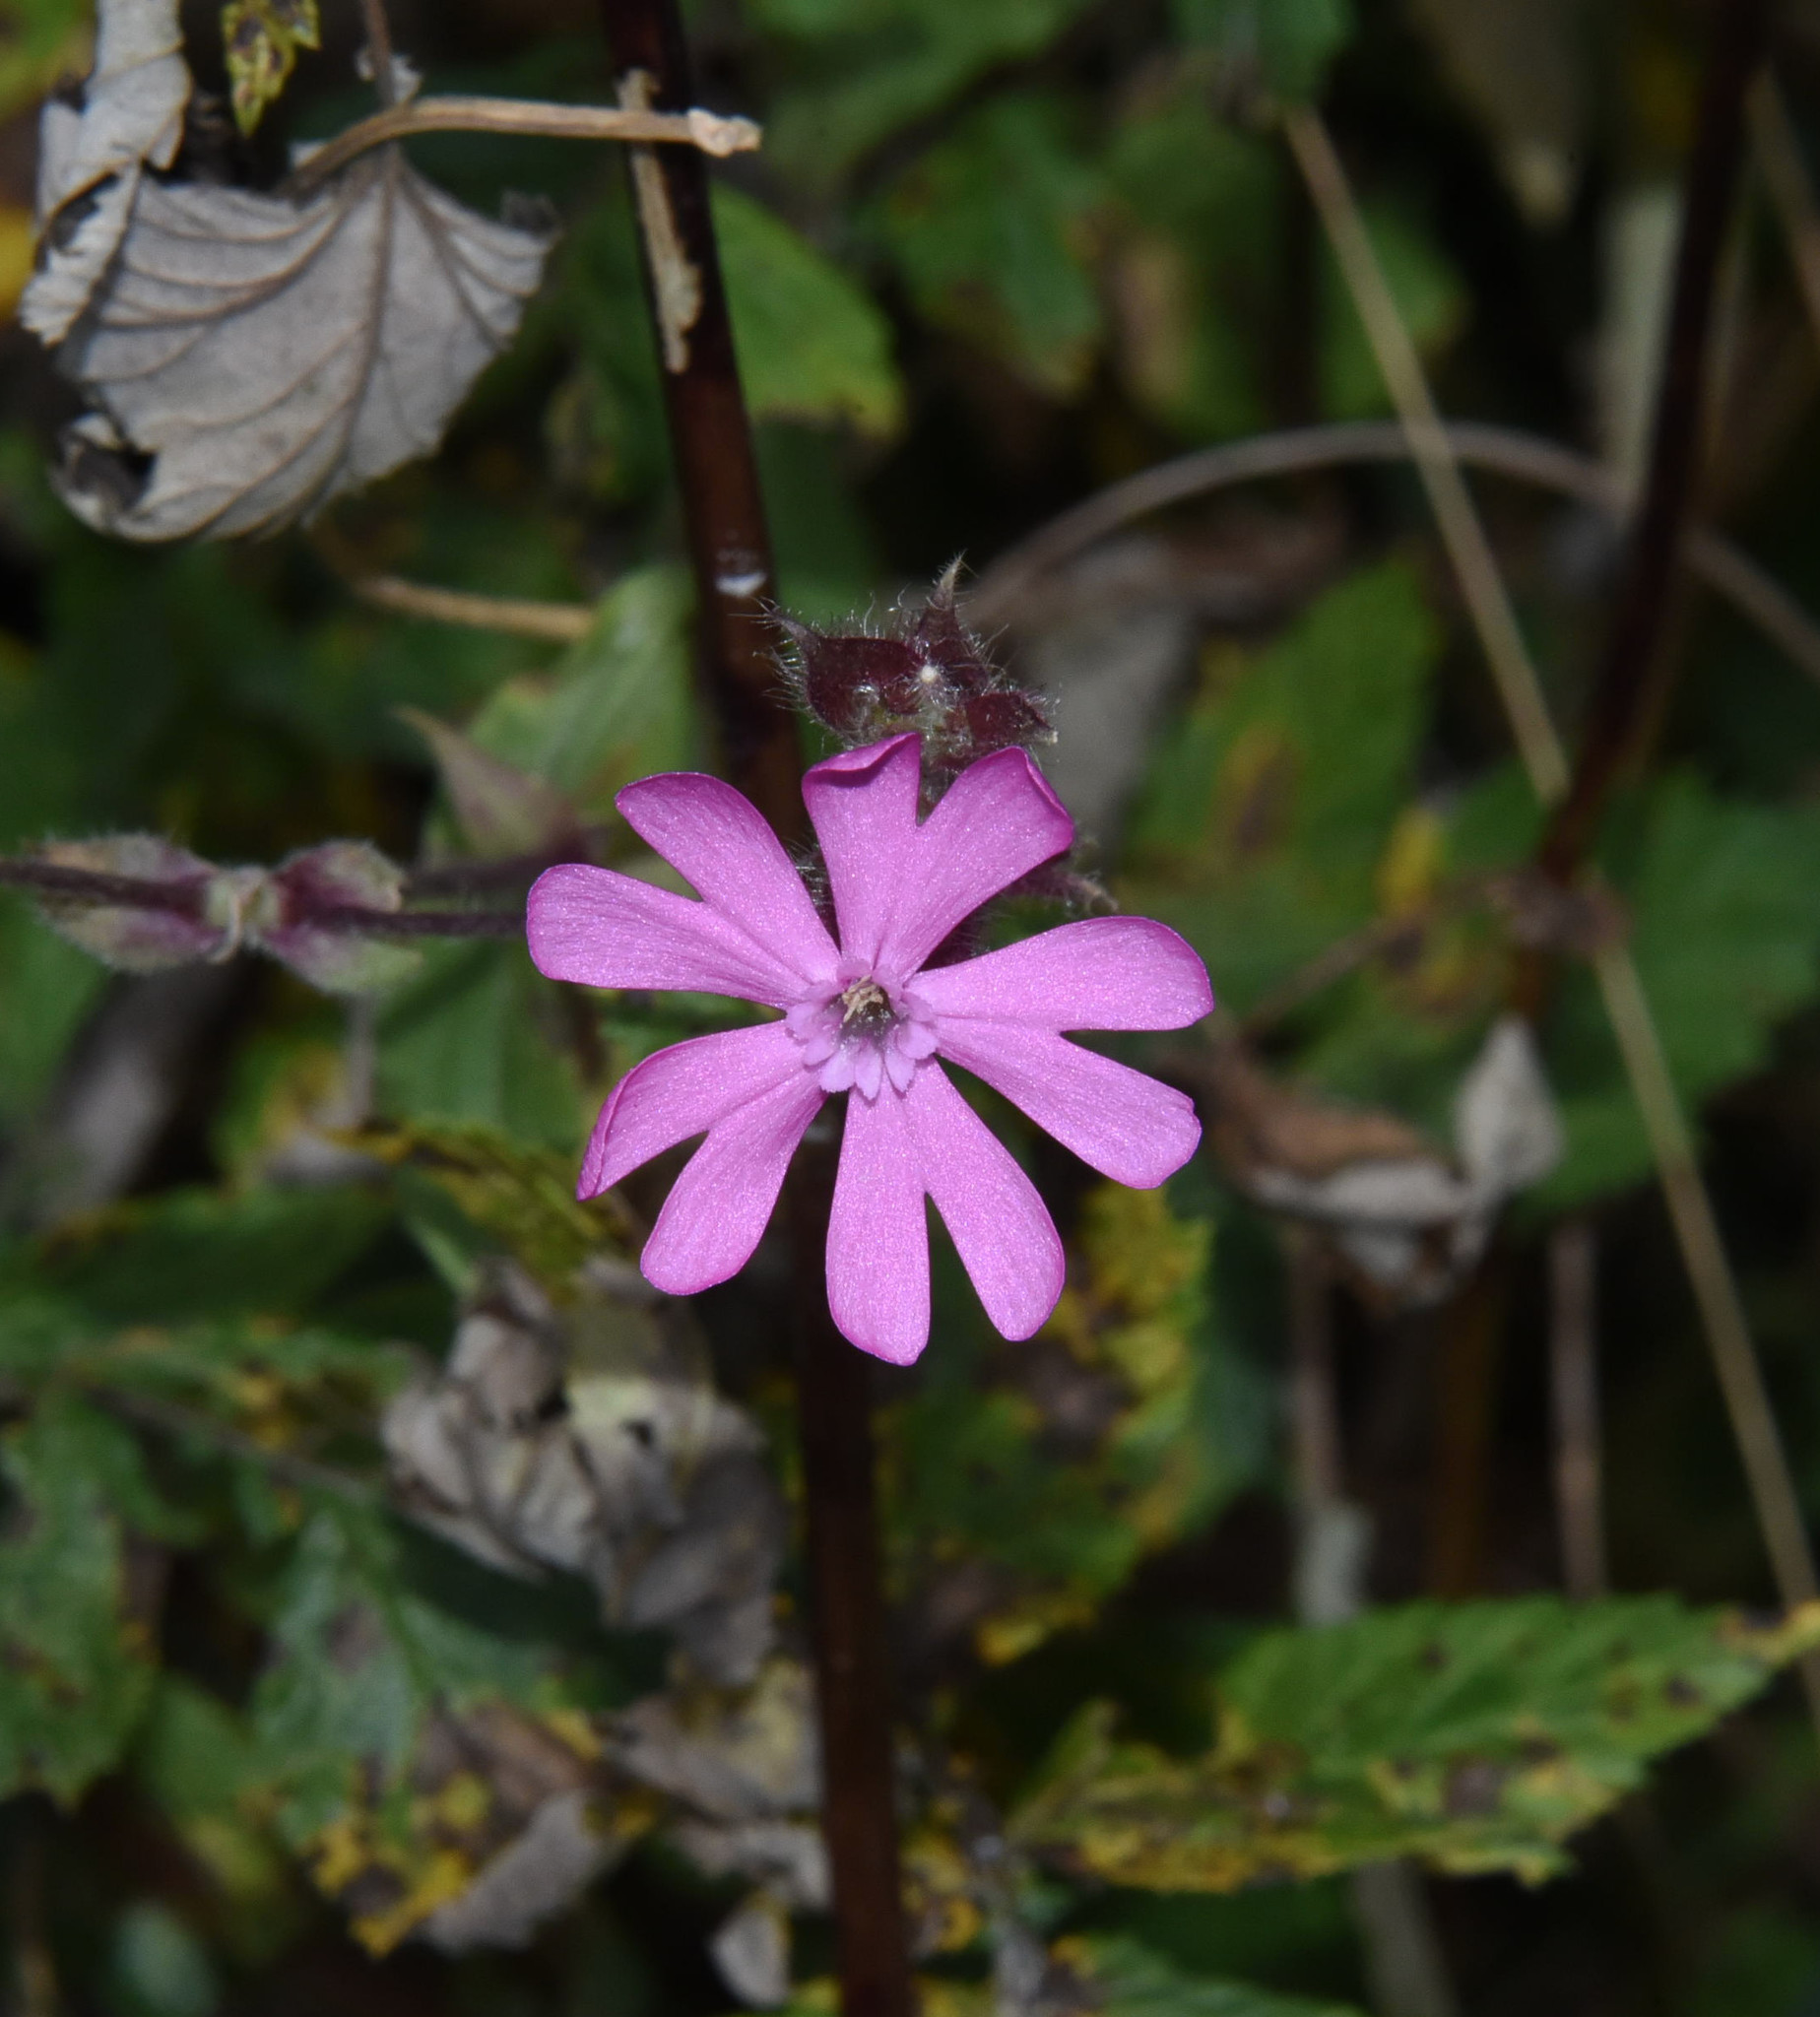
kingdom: Plantae
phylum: Tracheophyta
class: Magnoliopsida
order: Caryophyllales
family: Caryophyllaceae
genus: Silene
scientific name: Silene dioica
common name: Red campion
